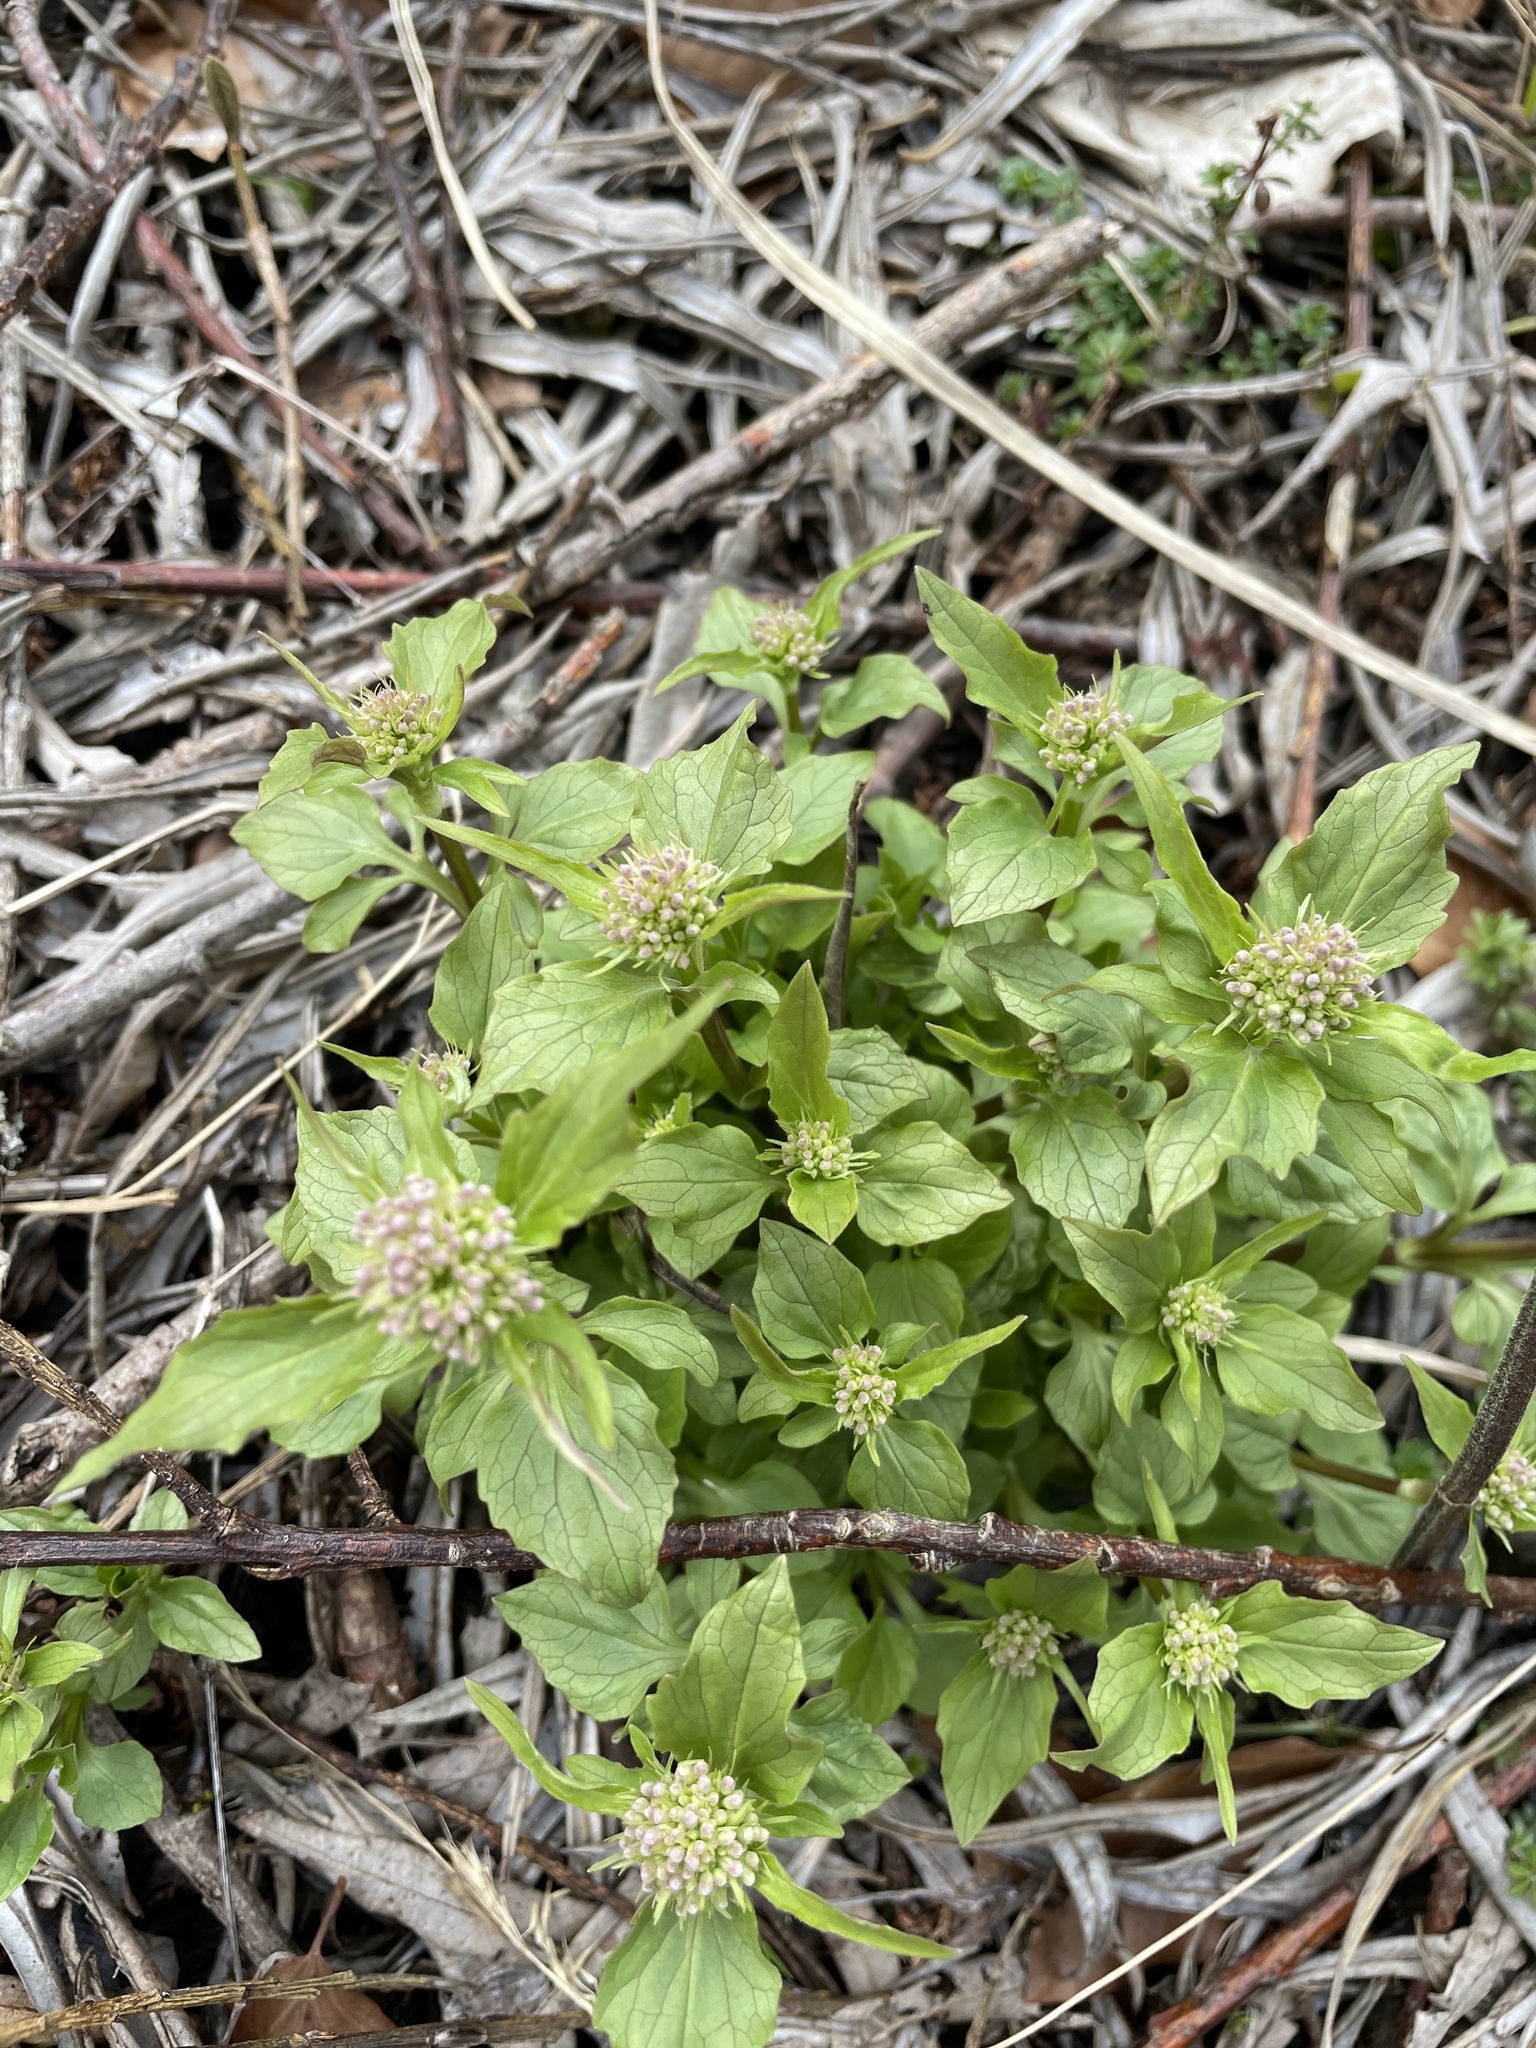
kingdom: Plantae
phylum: Tracheophyta
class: Magnoliopsida
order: Dipsacales
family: Caprifoliaceae
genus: Valeriana
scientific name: Valeriana tripteris
